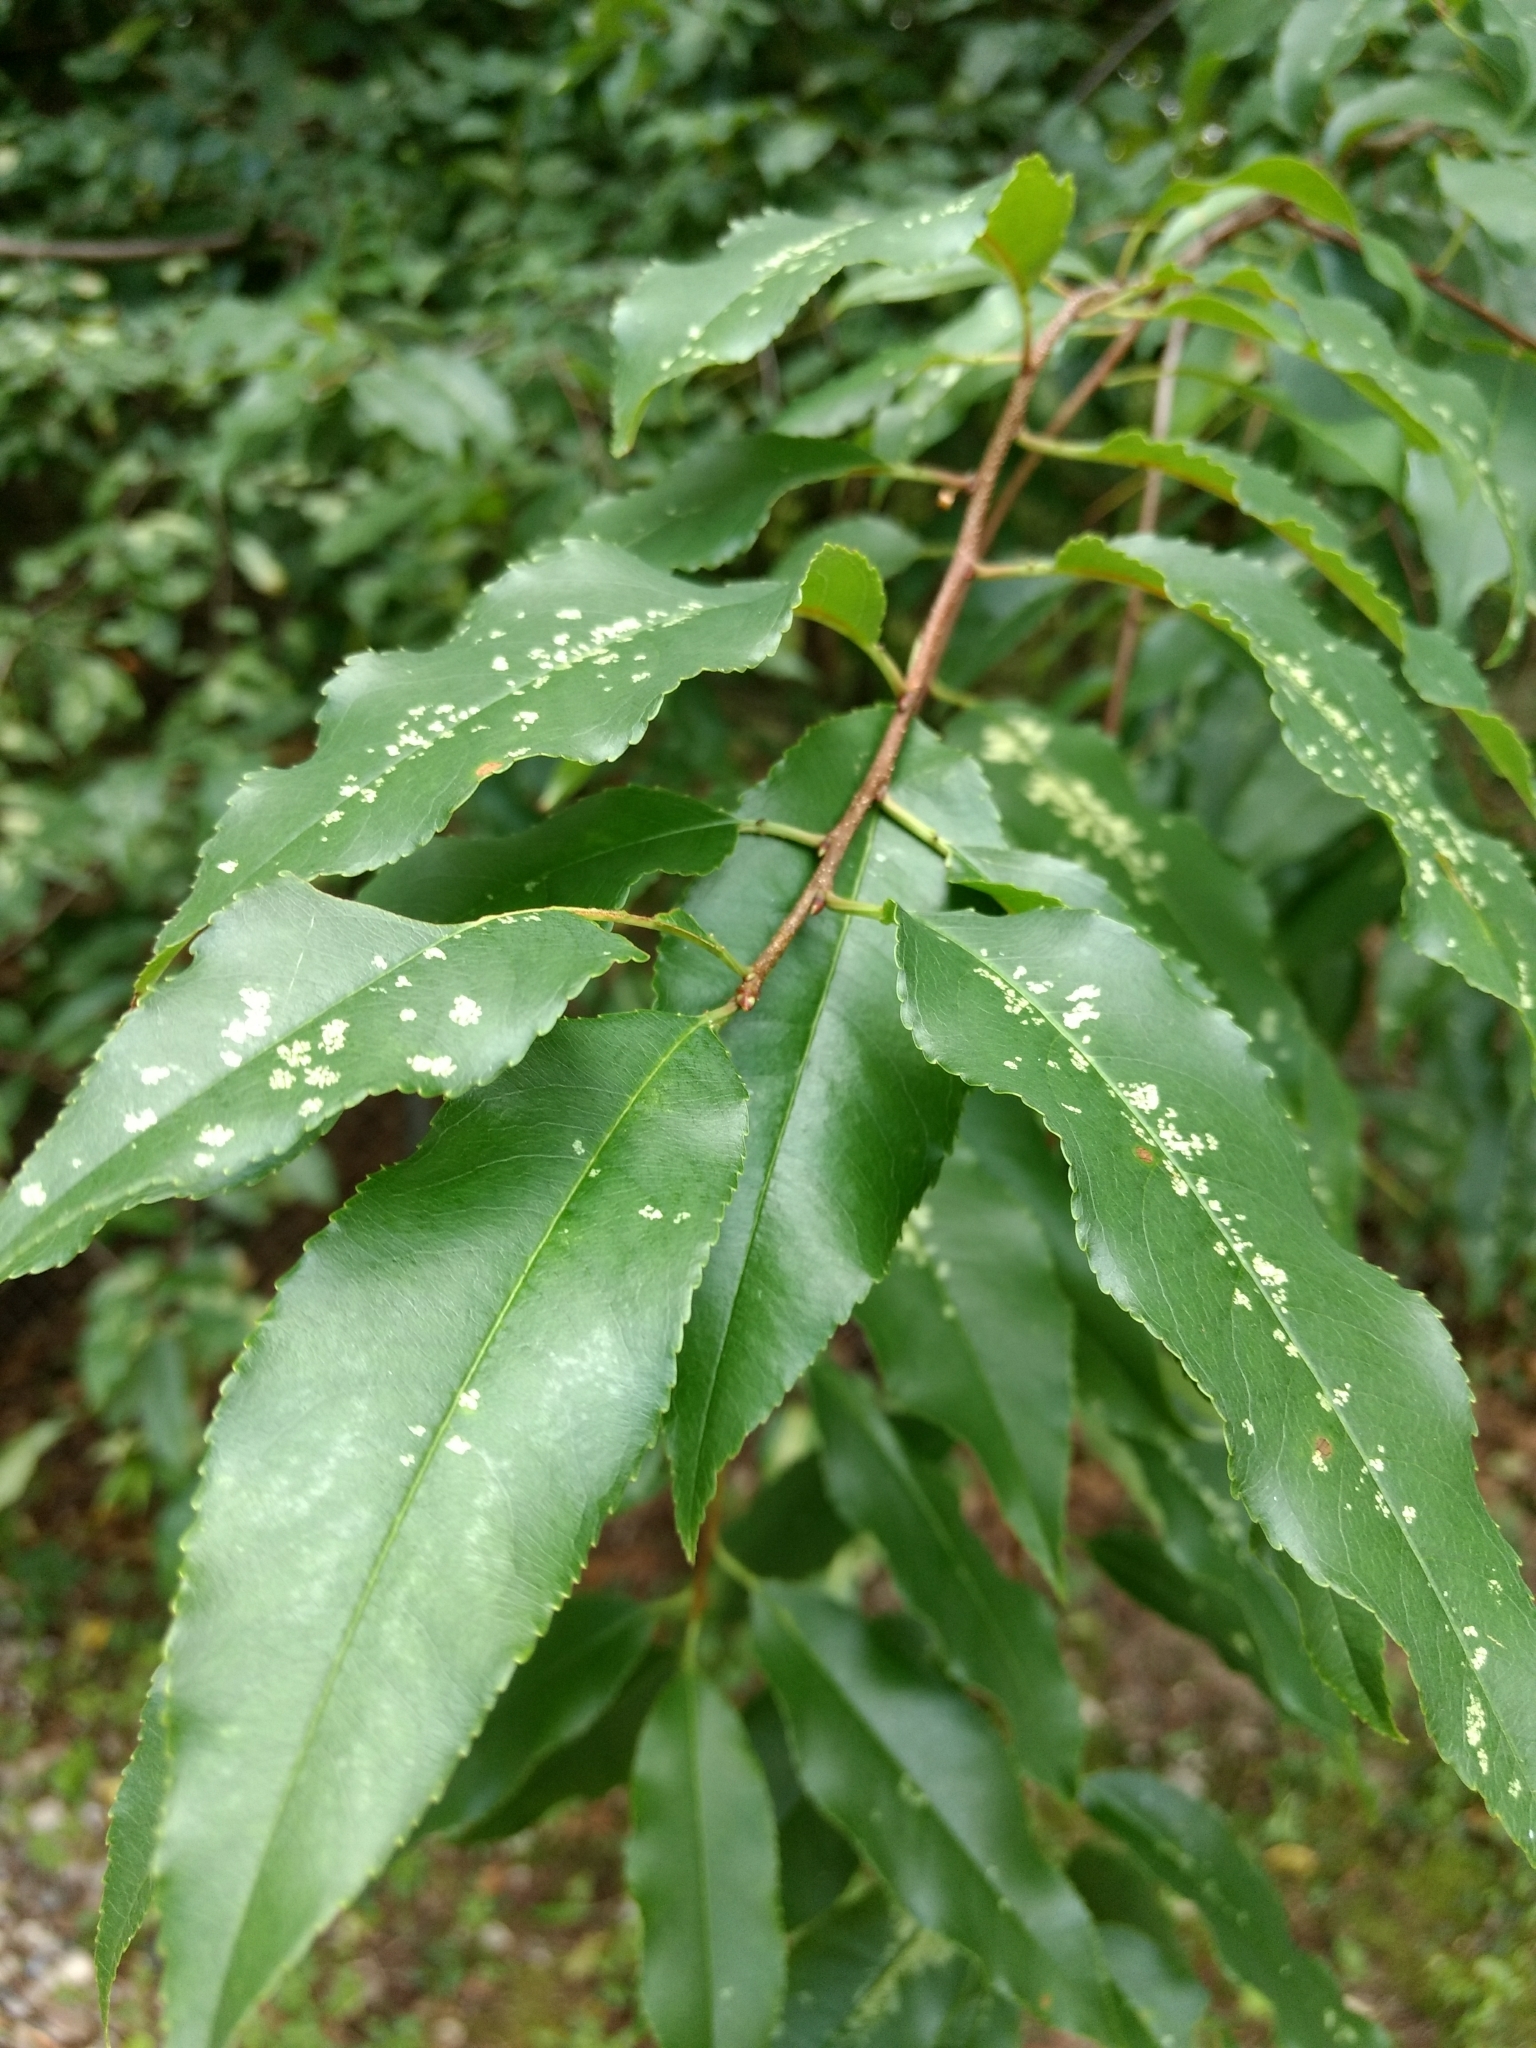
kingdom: Plantae
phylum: Tracheophyta
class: Magnoliopsida
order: Rosales
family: Rosaceae
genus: Prunus
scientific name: Prunus serotina
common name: Black cherry
